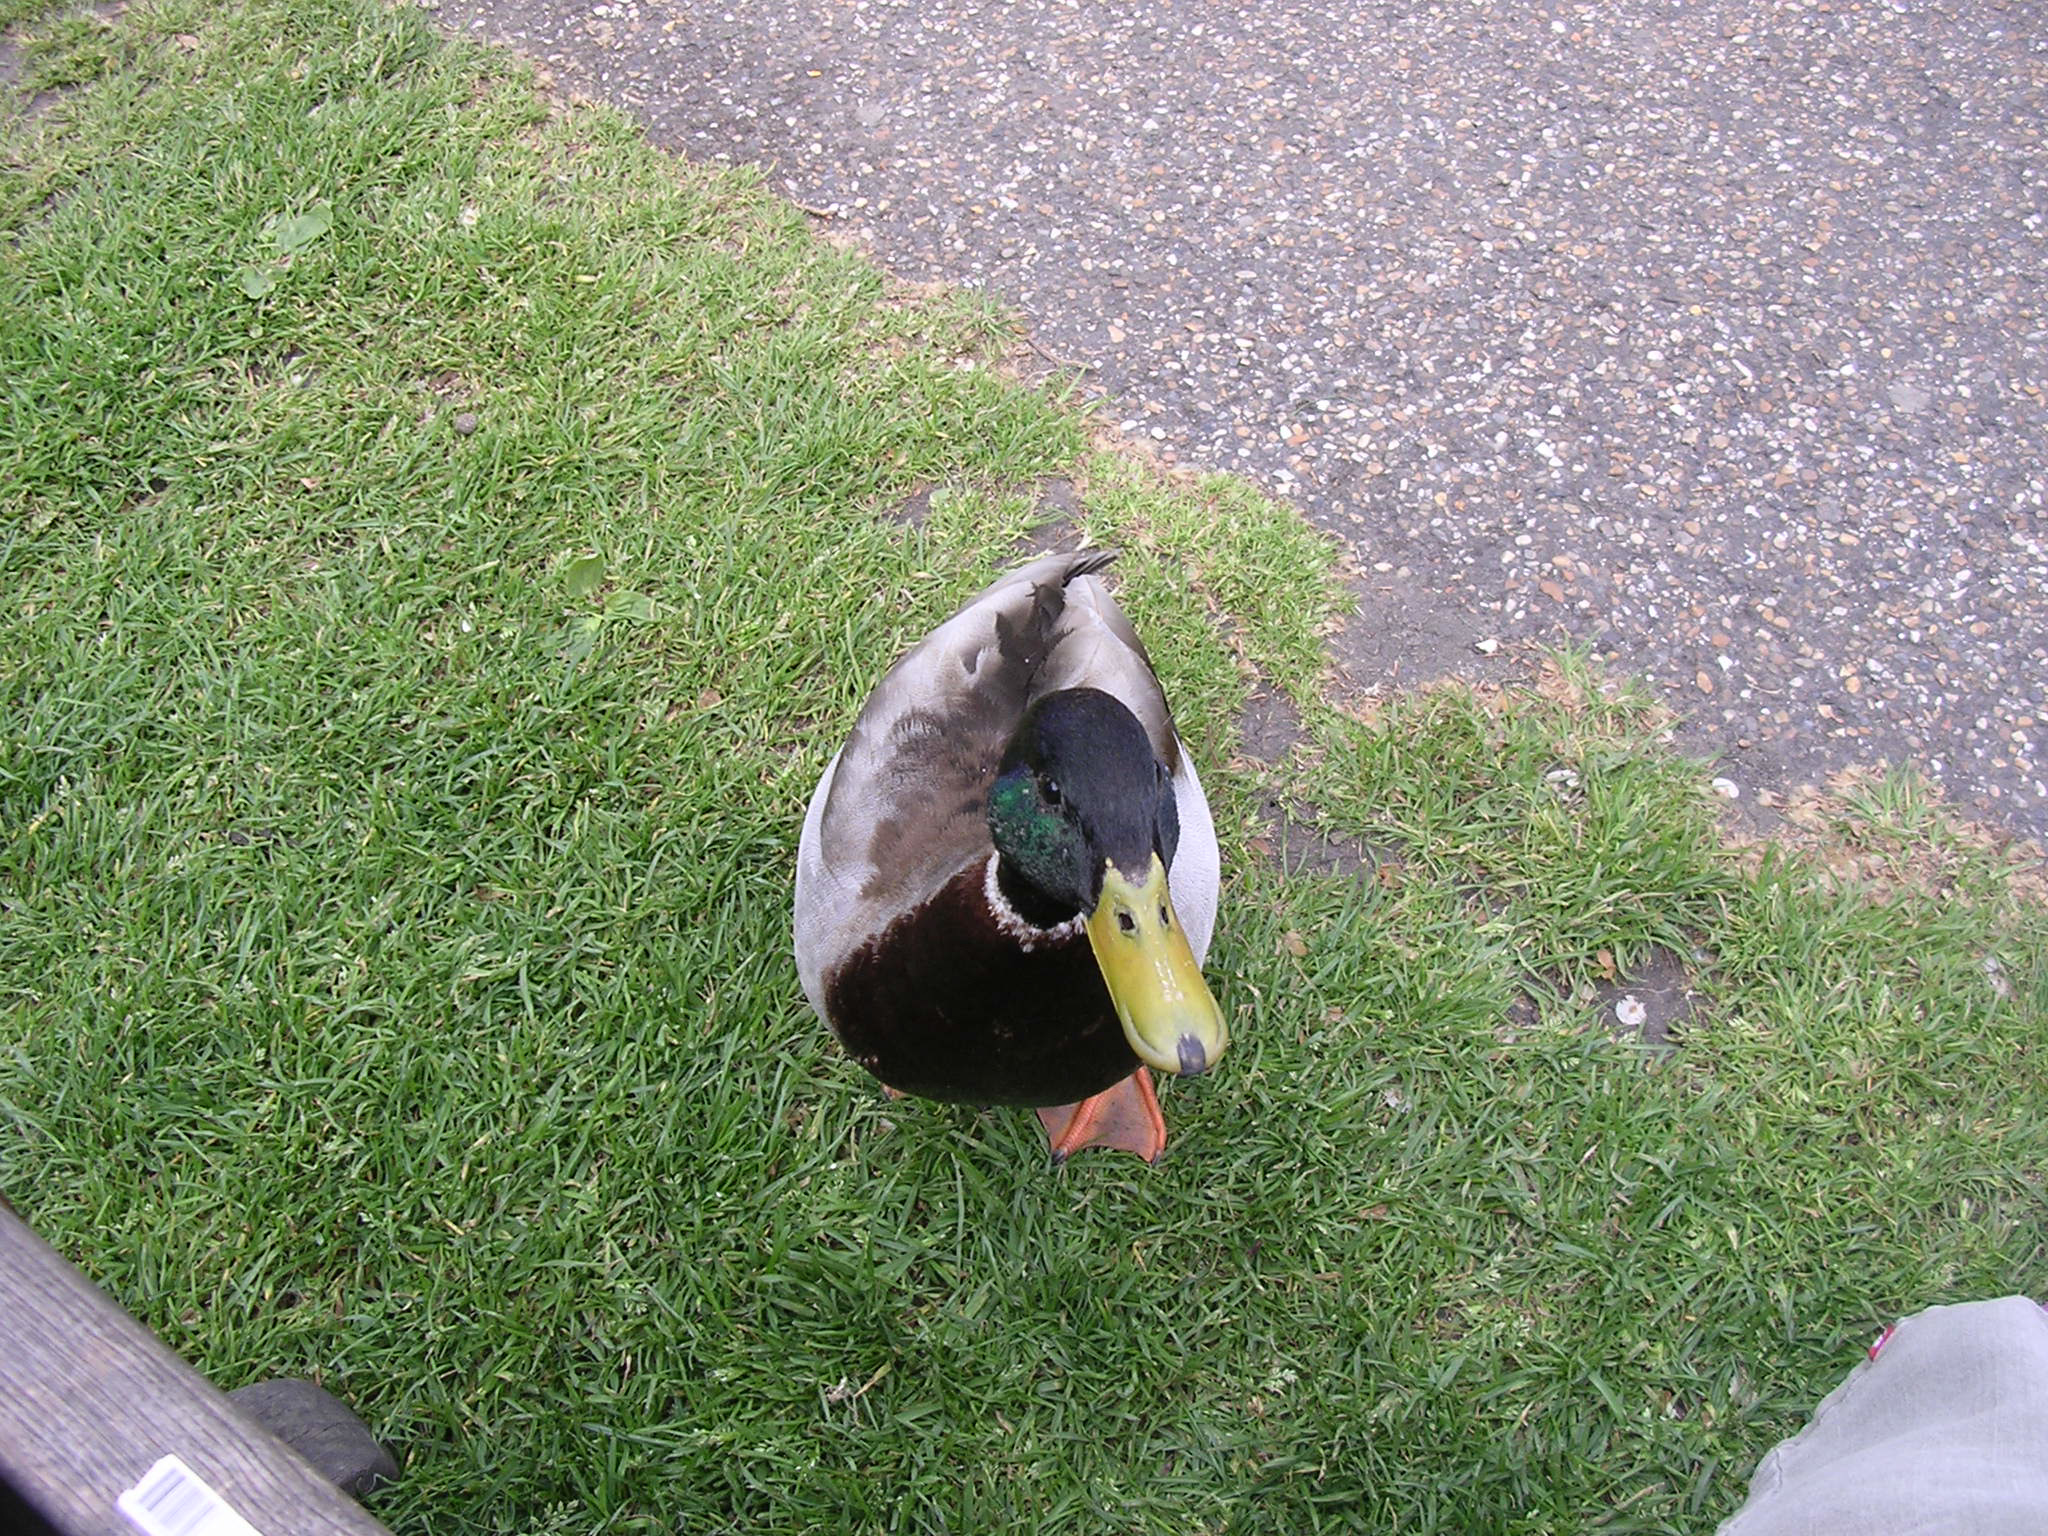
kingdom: Animalia
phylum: Chordata
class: Aves
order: Anseriformes
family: Anatidae
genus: Anas
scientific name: Anas platyrhynchos
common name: Mallard
